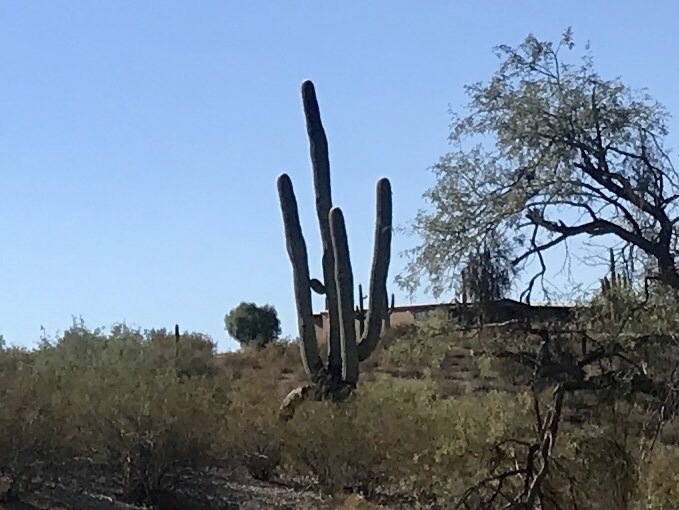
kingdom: Plantae
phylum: Tracheophyta
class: Magnoliopsida
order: Caryophyllales
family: Cactaceae
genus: Carnegiea
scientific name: Carnegiea gigantea
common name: Saguaro
